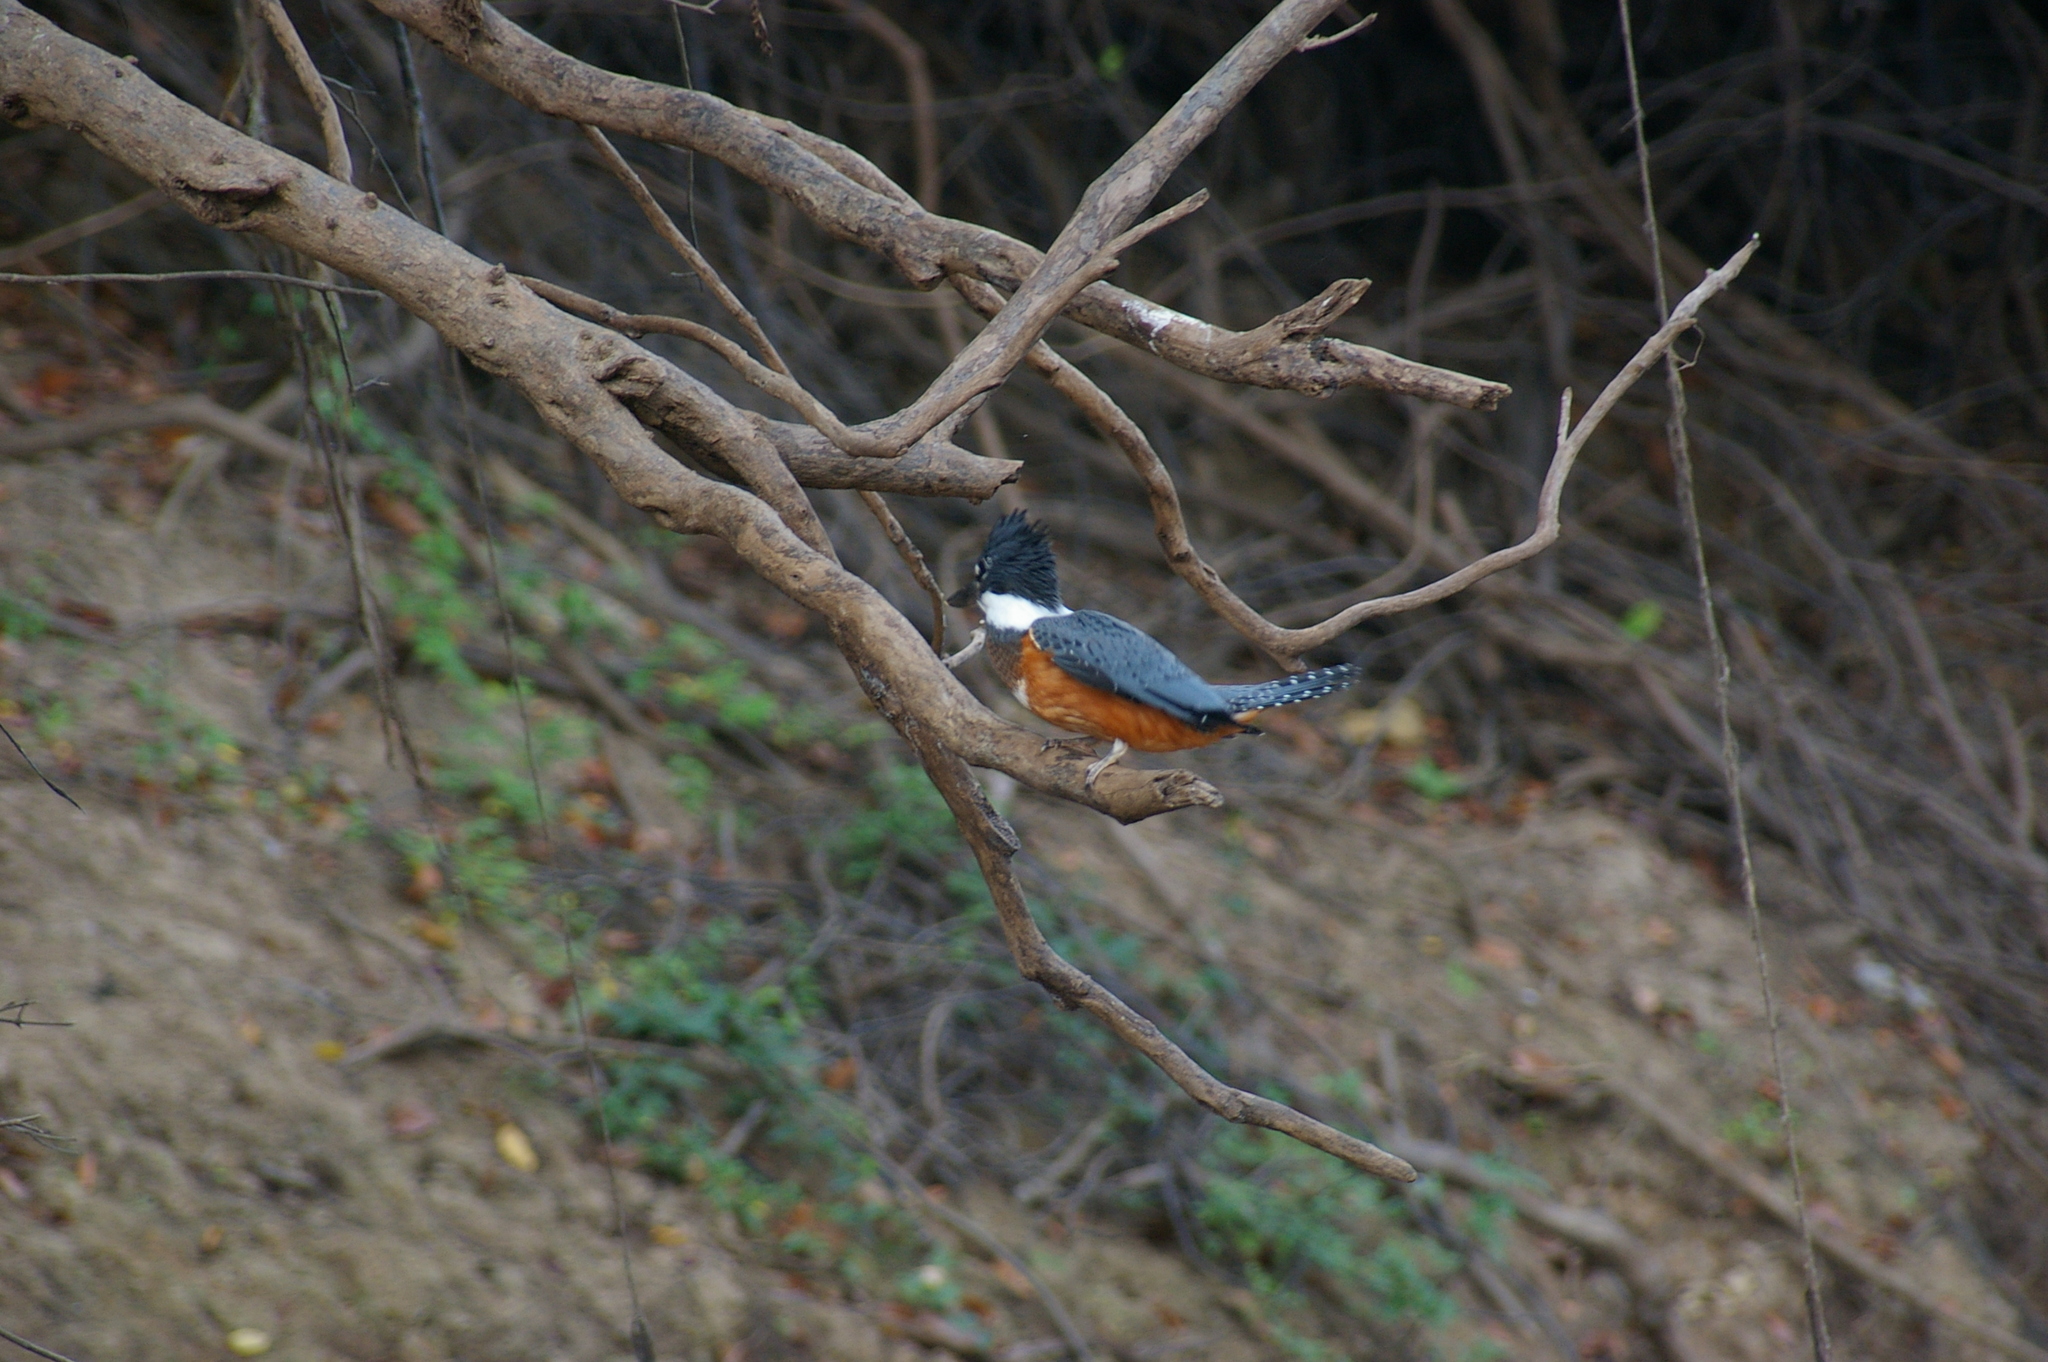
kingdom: Animalia
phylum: Chordata
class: Aves
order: Coraciiformes
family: Alcedinidae
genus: Megaceryle
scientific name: Megaceryle torquata
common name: Ringed kingfisher
